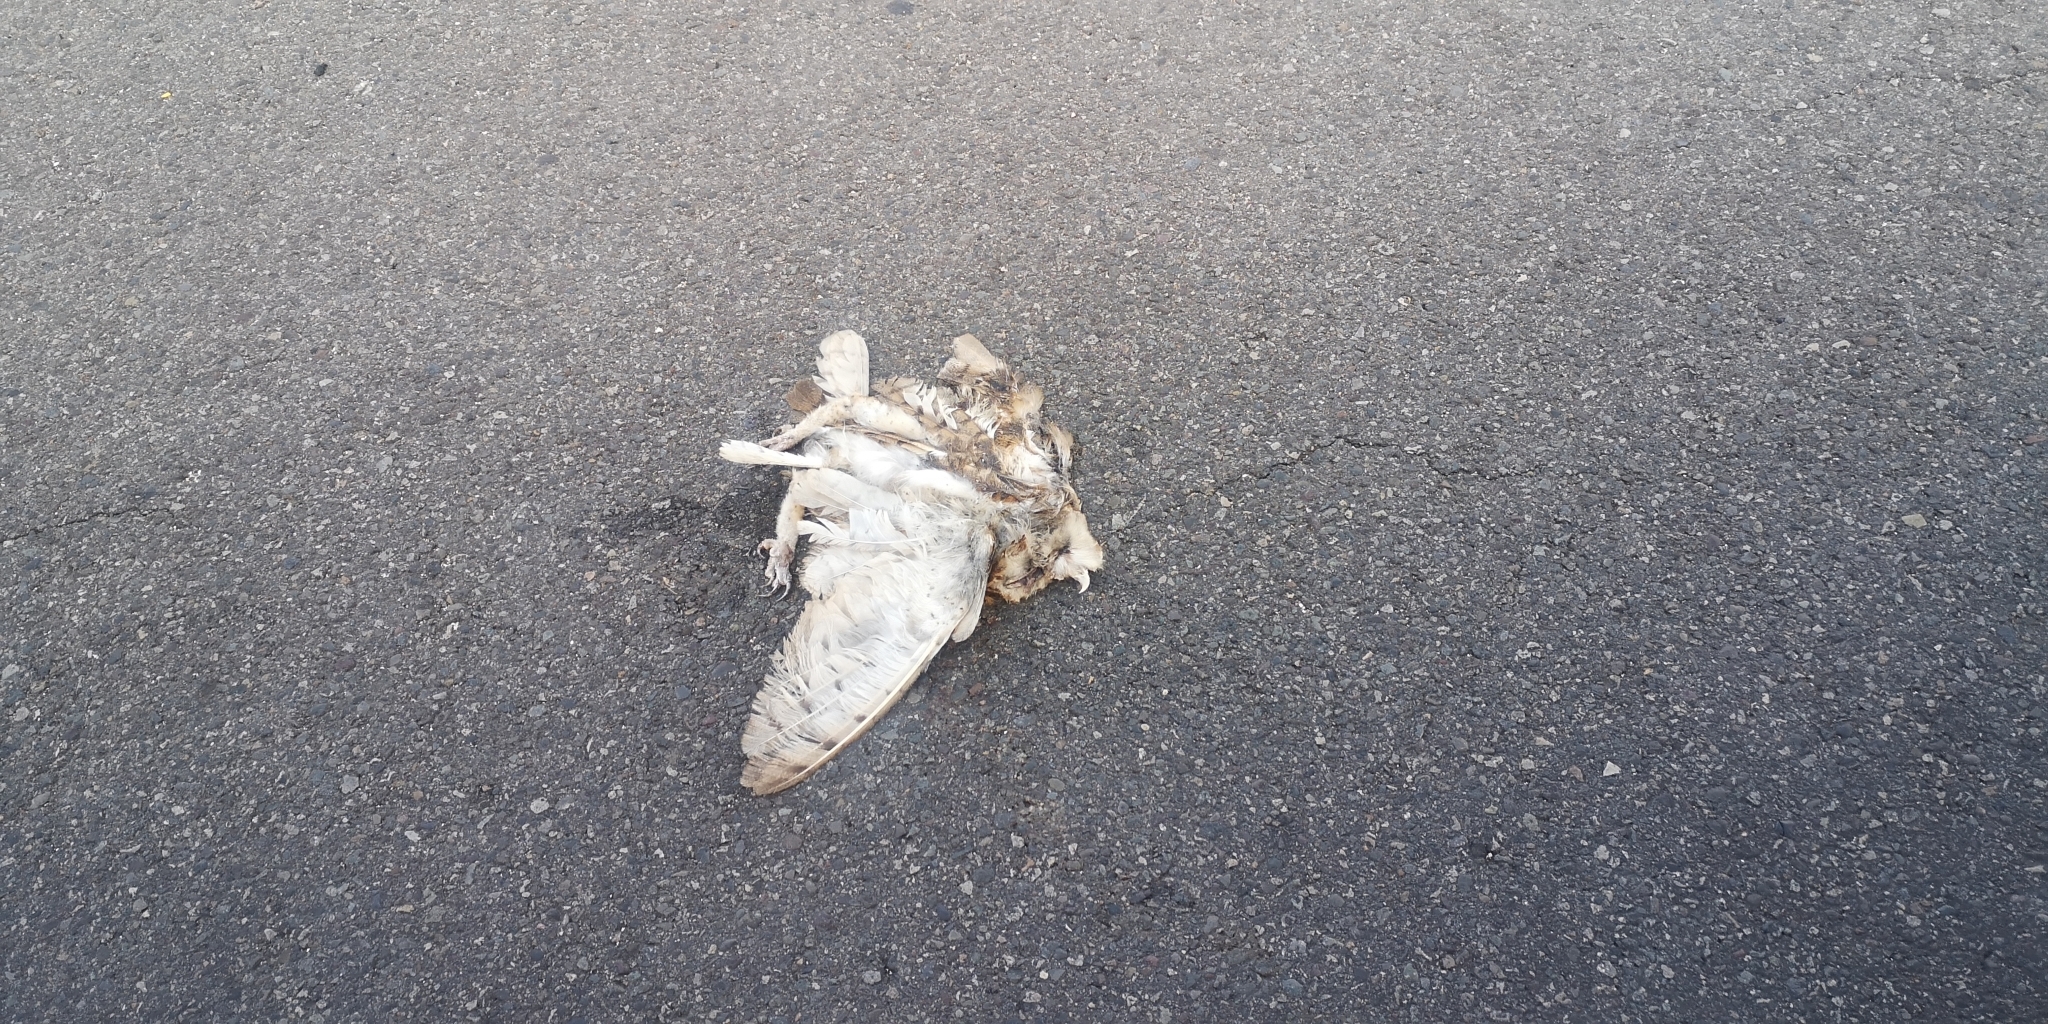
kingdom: Animalia
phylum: Chordata
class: Aves
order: Strigiformes
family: Tytonidae
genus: Tyto
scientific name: Tyto alba
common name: Barn owl
